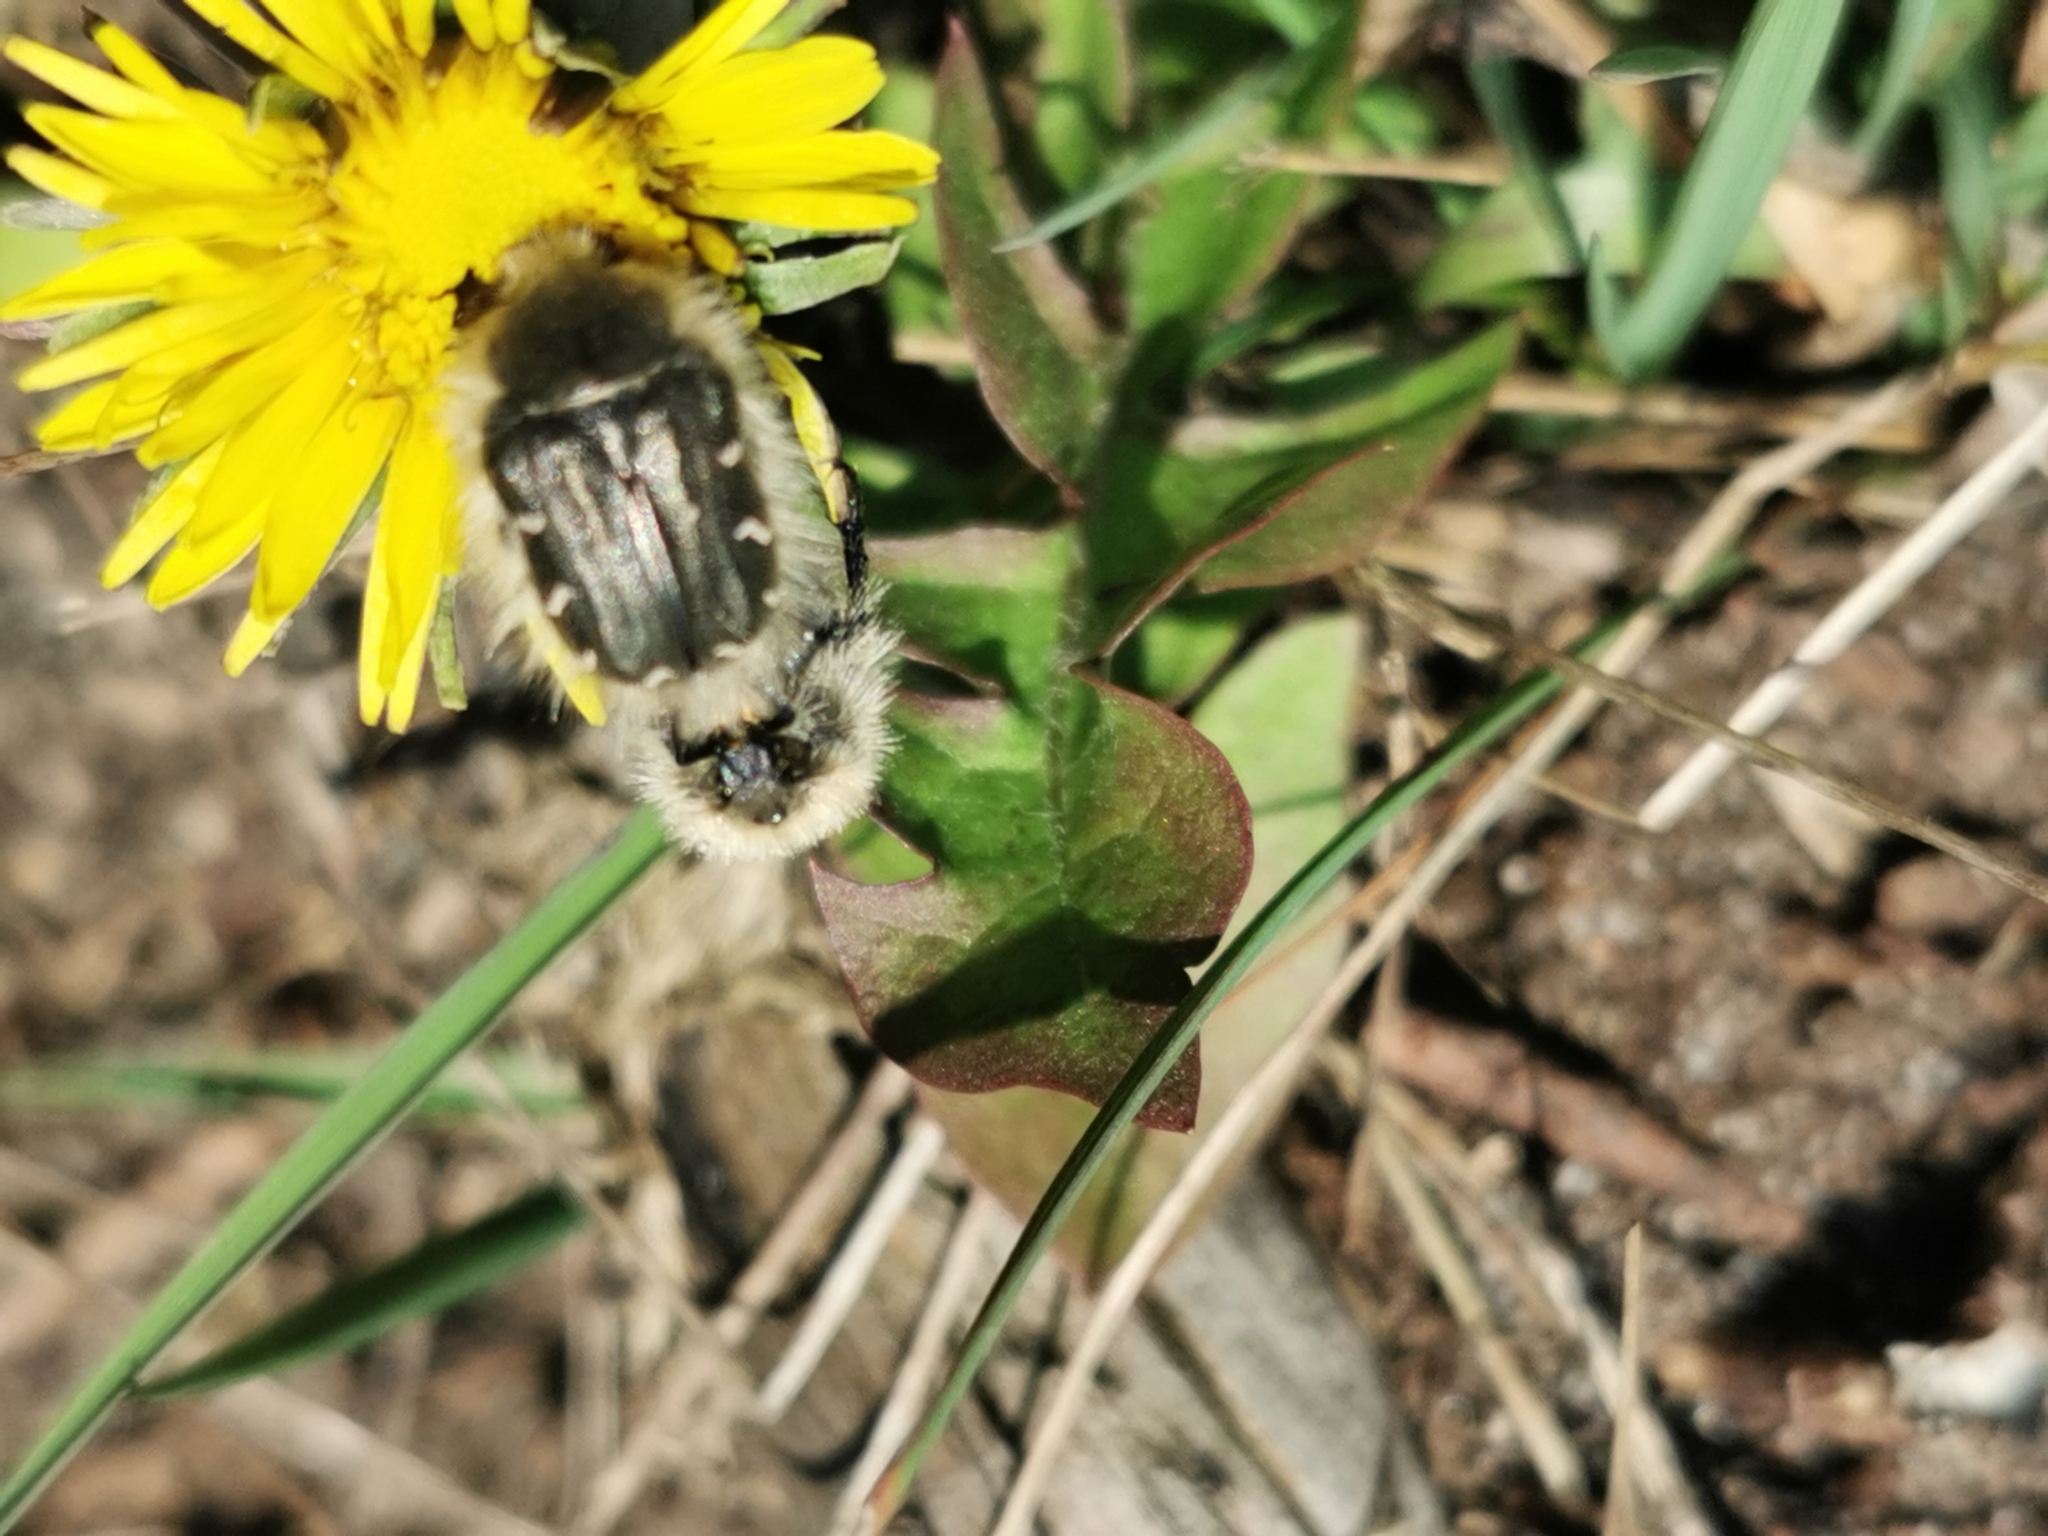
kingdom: Animalia
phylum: Arthropoda
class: Insecta
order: Coleoptera
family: Scarabaeidae
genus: Tropinota
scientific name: Tropinota hirta
